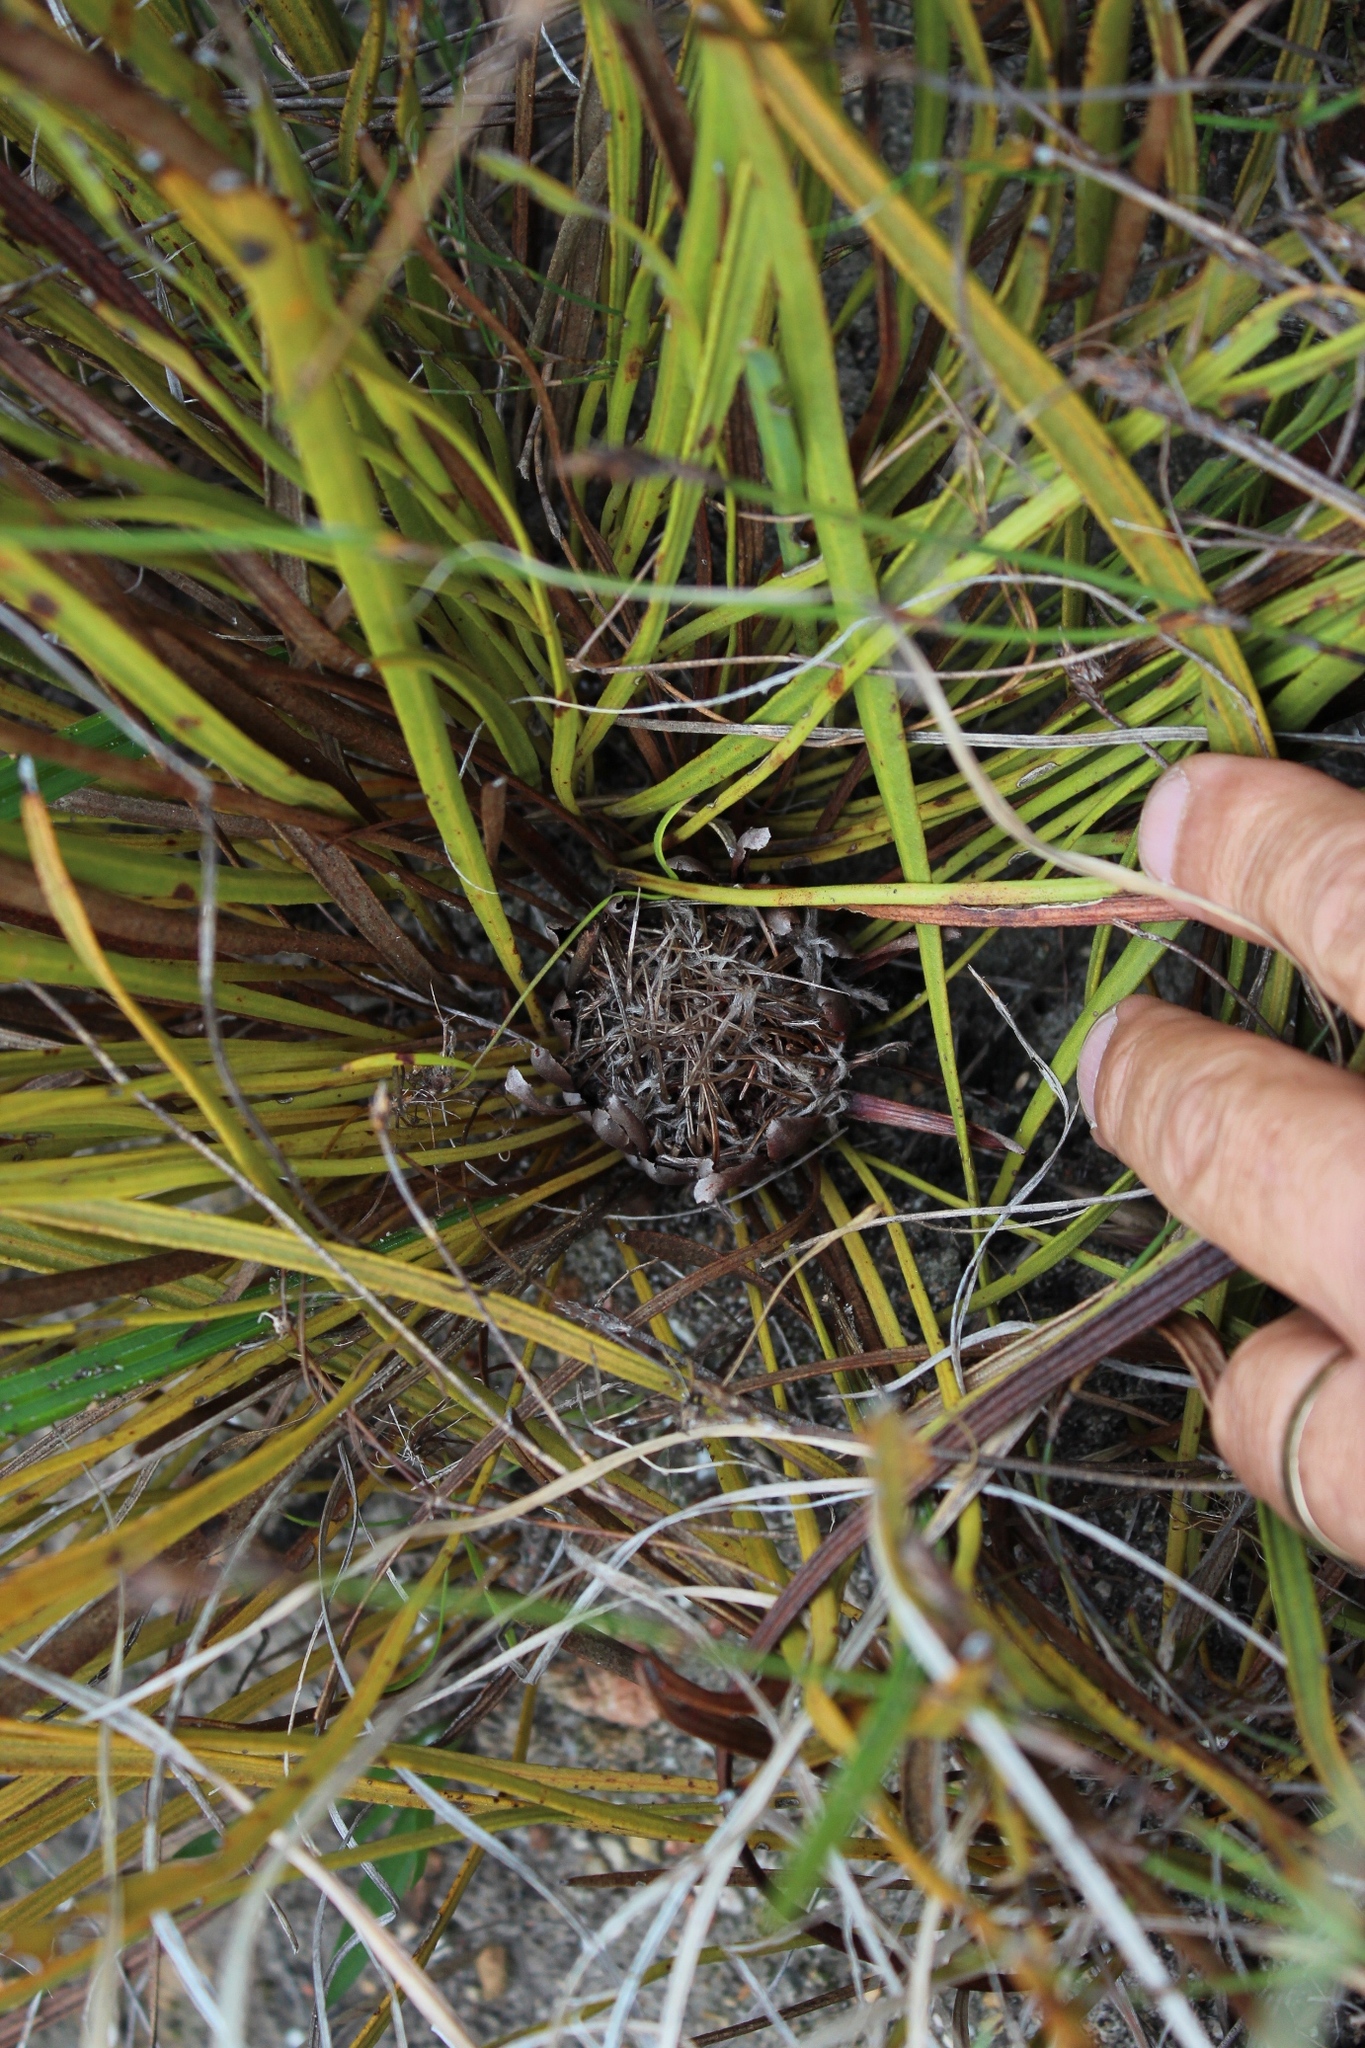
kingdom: Plantae
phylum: Tracheophyta
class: Magnoliopsida
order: Proteales
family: Proteaceae
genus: Protea
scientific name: Protea scabra
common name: Sandpaper-leaf sugarbush
